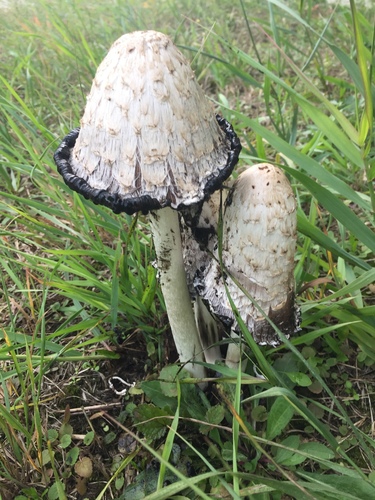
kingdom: Fungi
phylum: Basidiomycota
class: Agaricomycetes
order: Agaricales
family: Agaricaceae
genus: Coprinus
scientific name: Coprinus comatus
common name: Lawyer's wig
